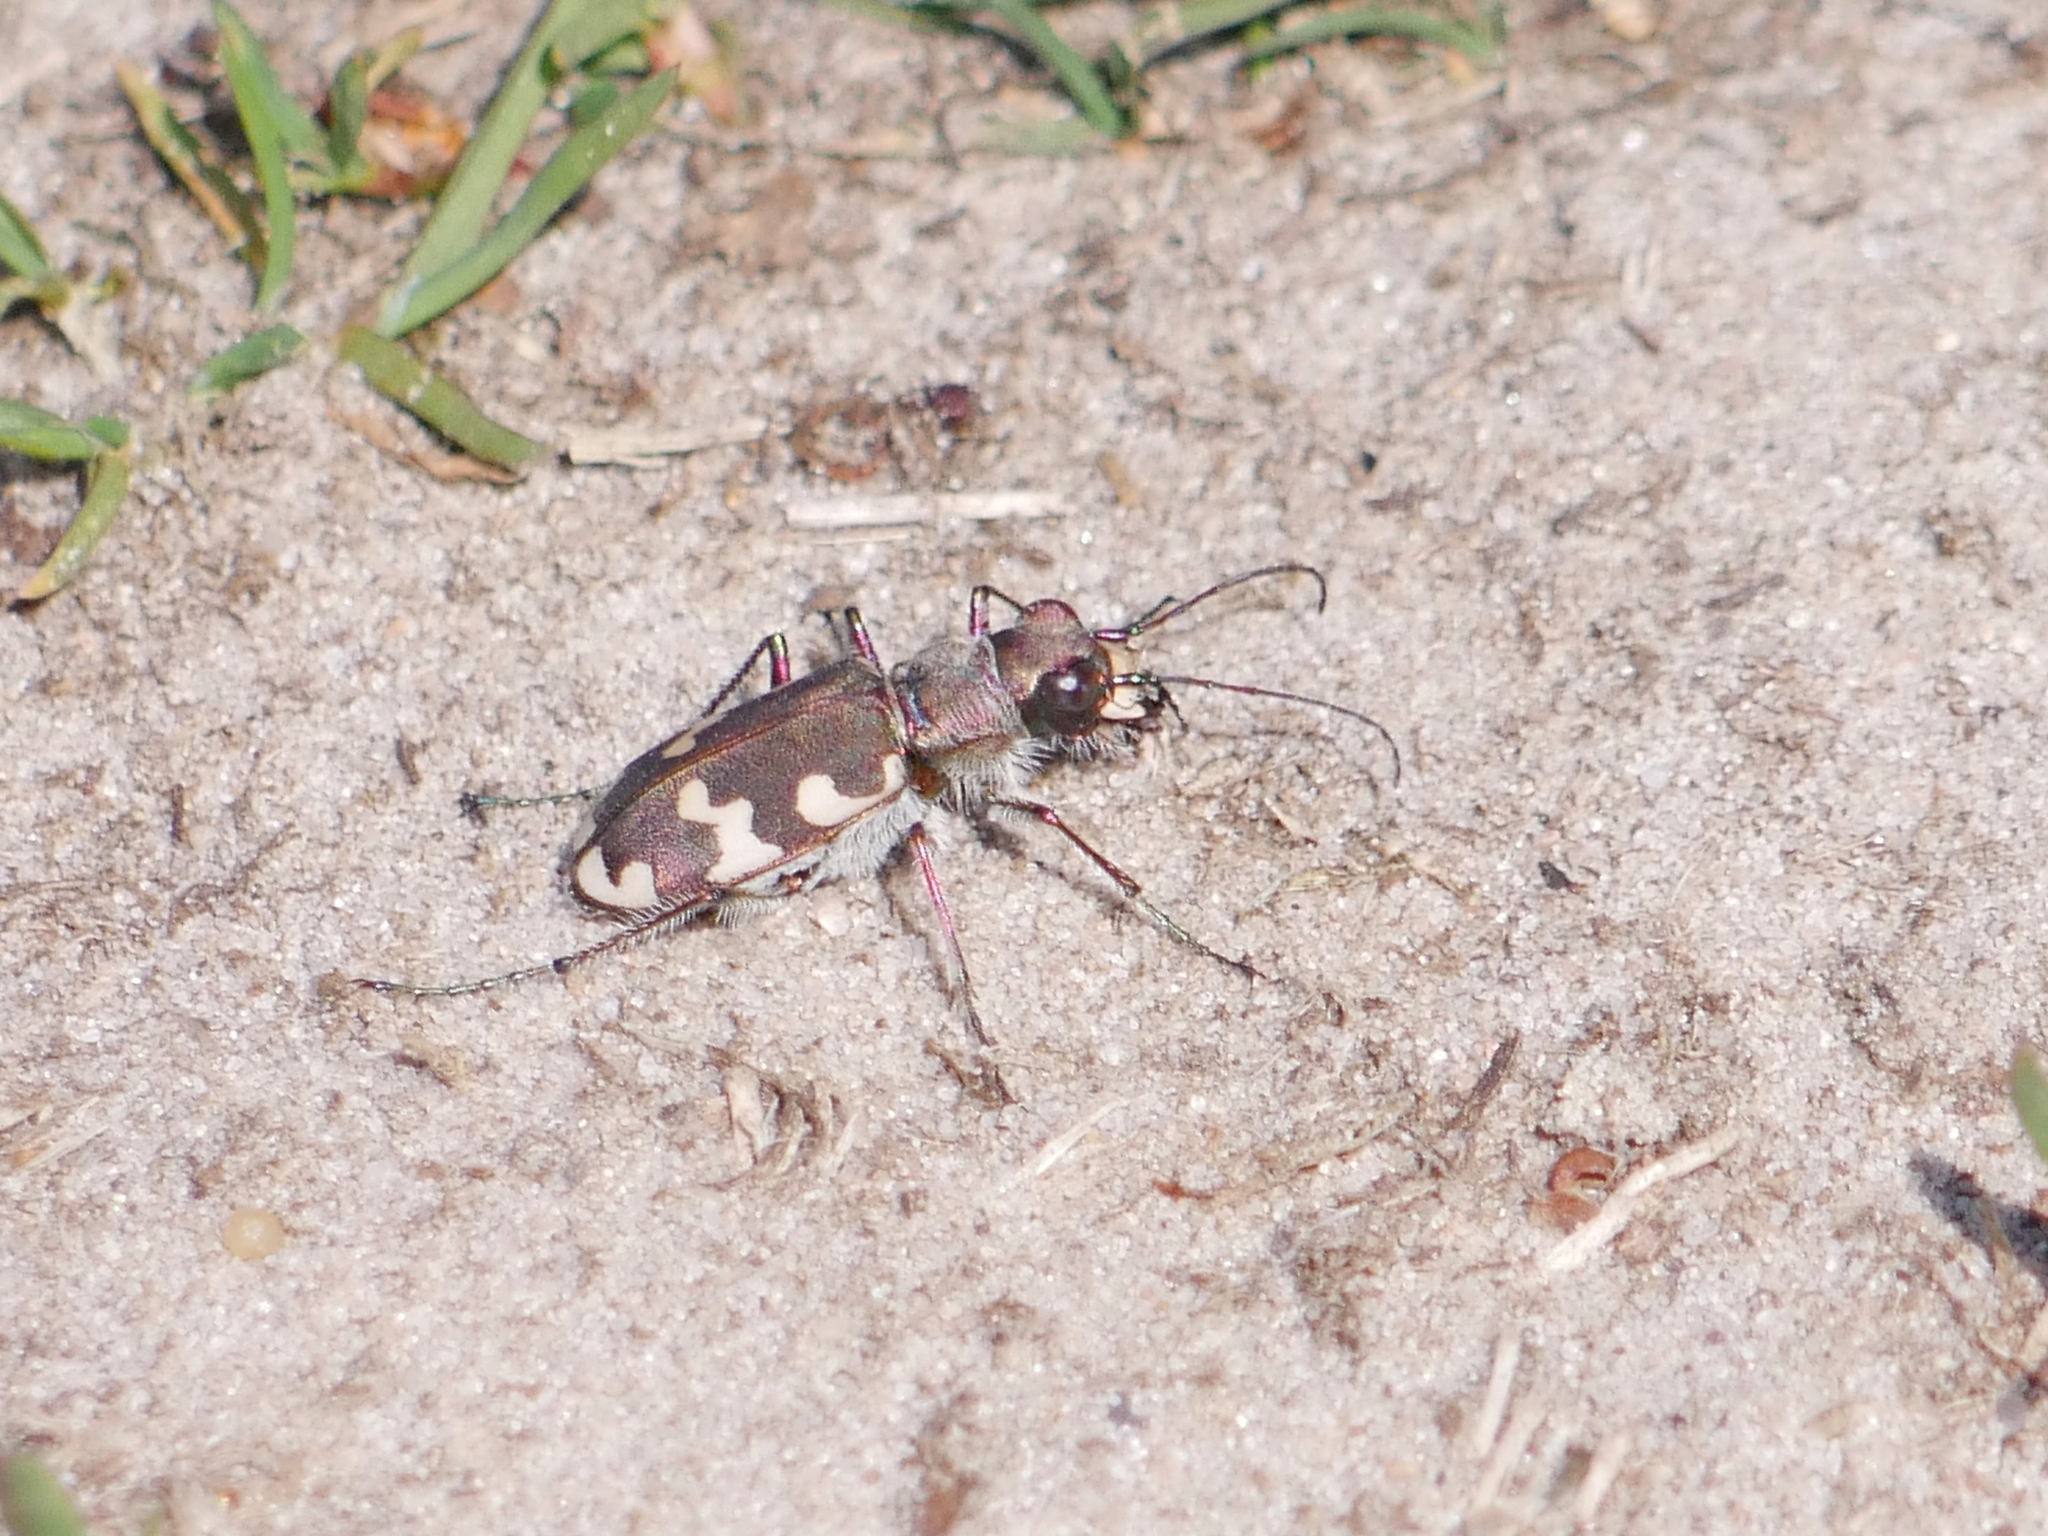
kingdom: Animalia
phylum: Arthropoda
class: Insecta
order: Coleoptera
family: Carabidae
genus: Cicindela
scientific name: Cicindela hybrida
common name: Northern dune tiger beetle
